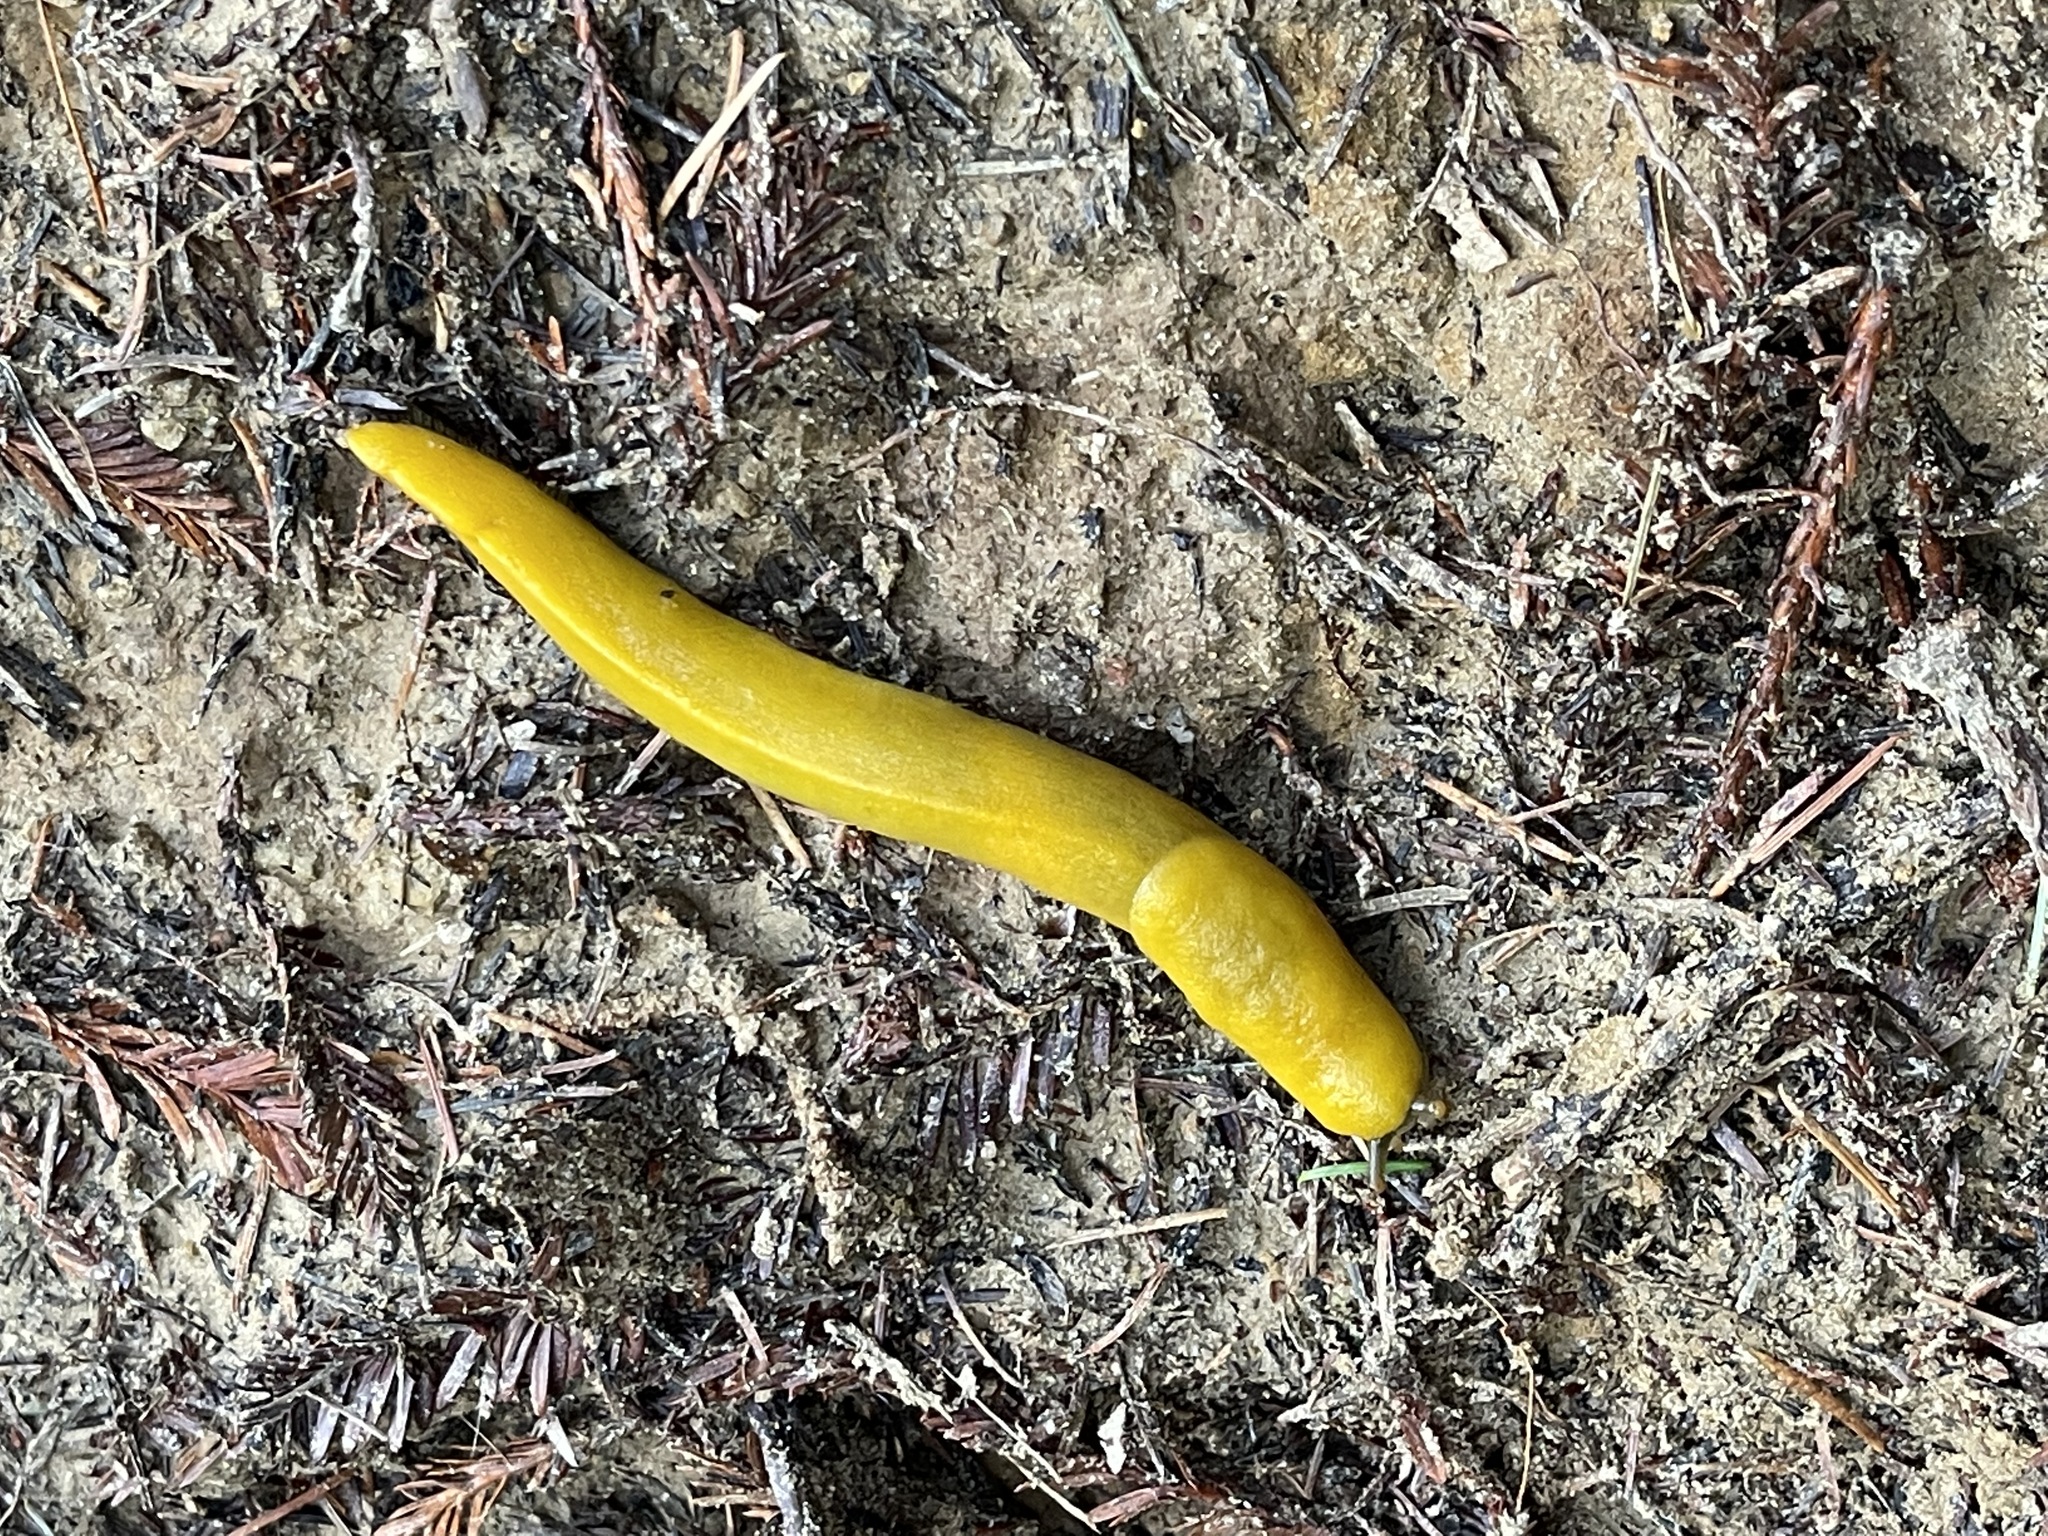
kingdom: Animalia
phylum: Mollusca
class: Gastropoda
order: Stylommatophora
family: Ariolimacidae
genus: Ariolimax
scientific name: Ariolimax dolichophallus
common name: Slender banana slug
